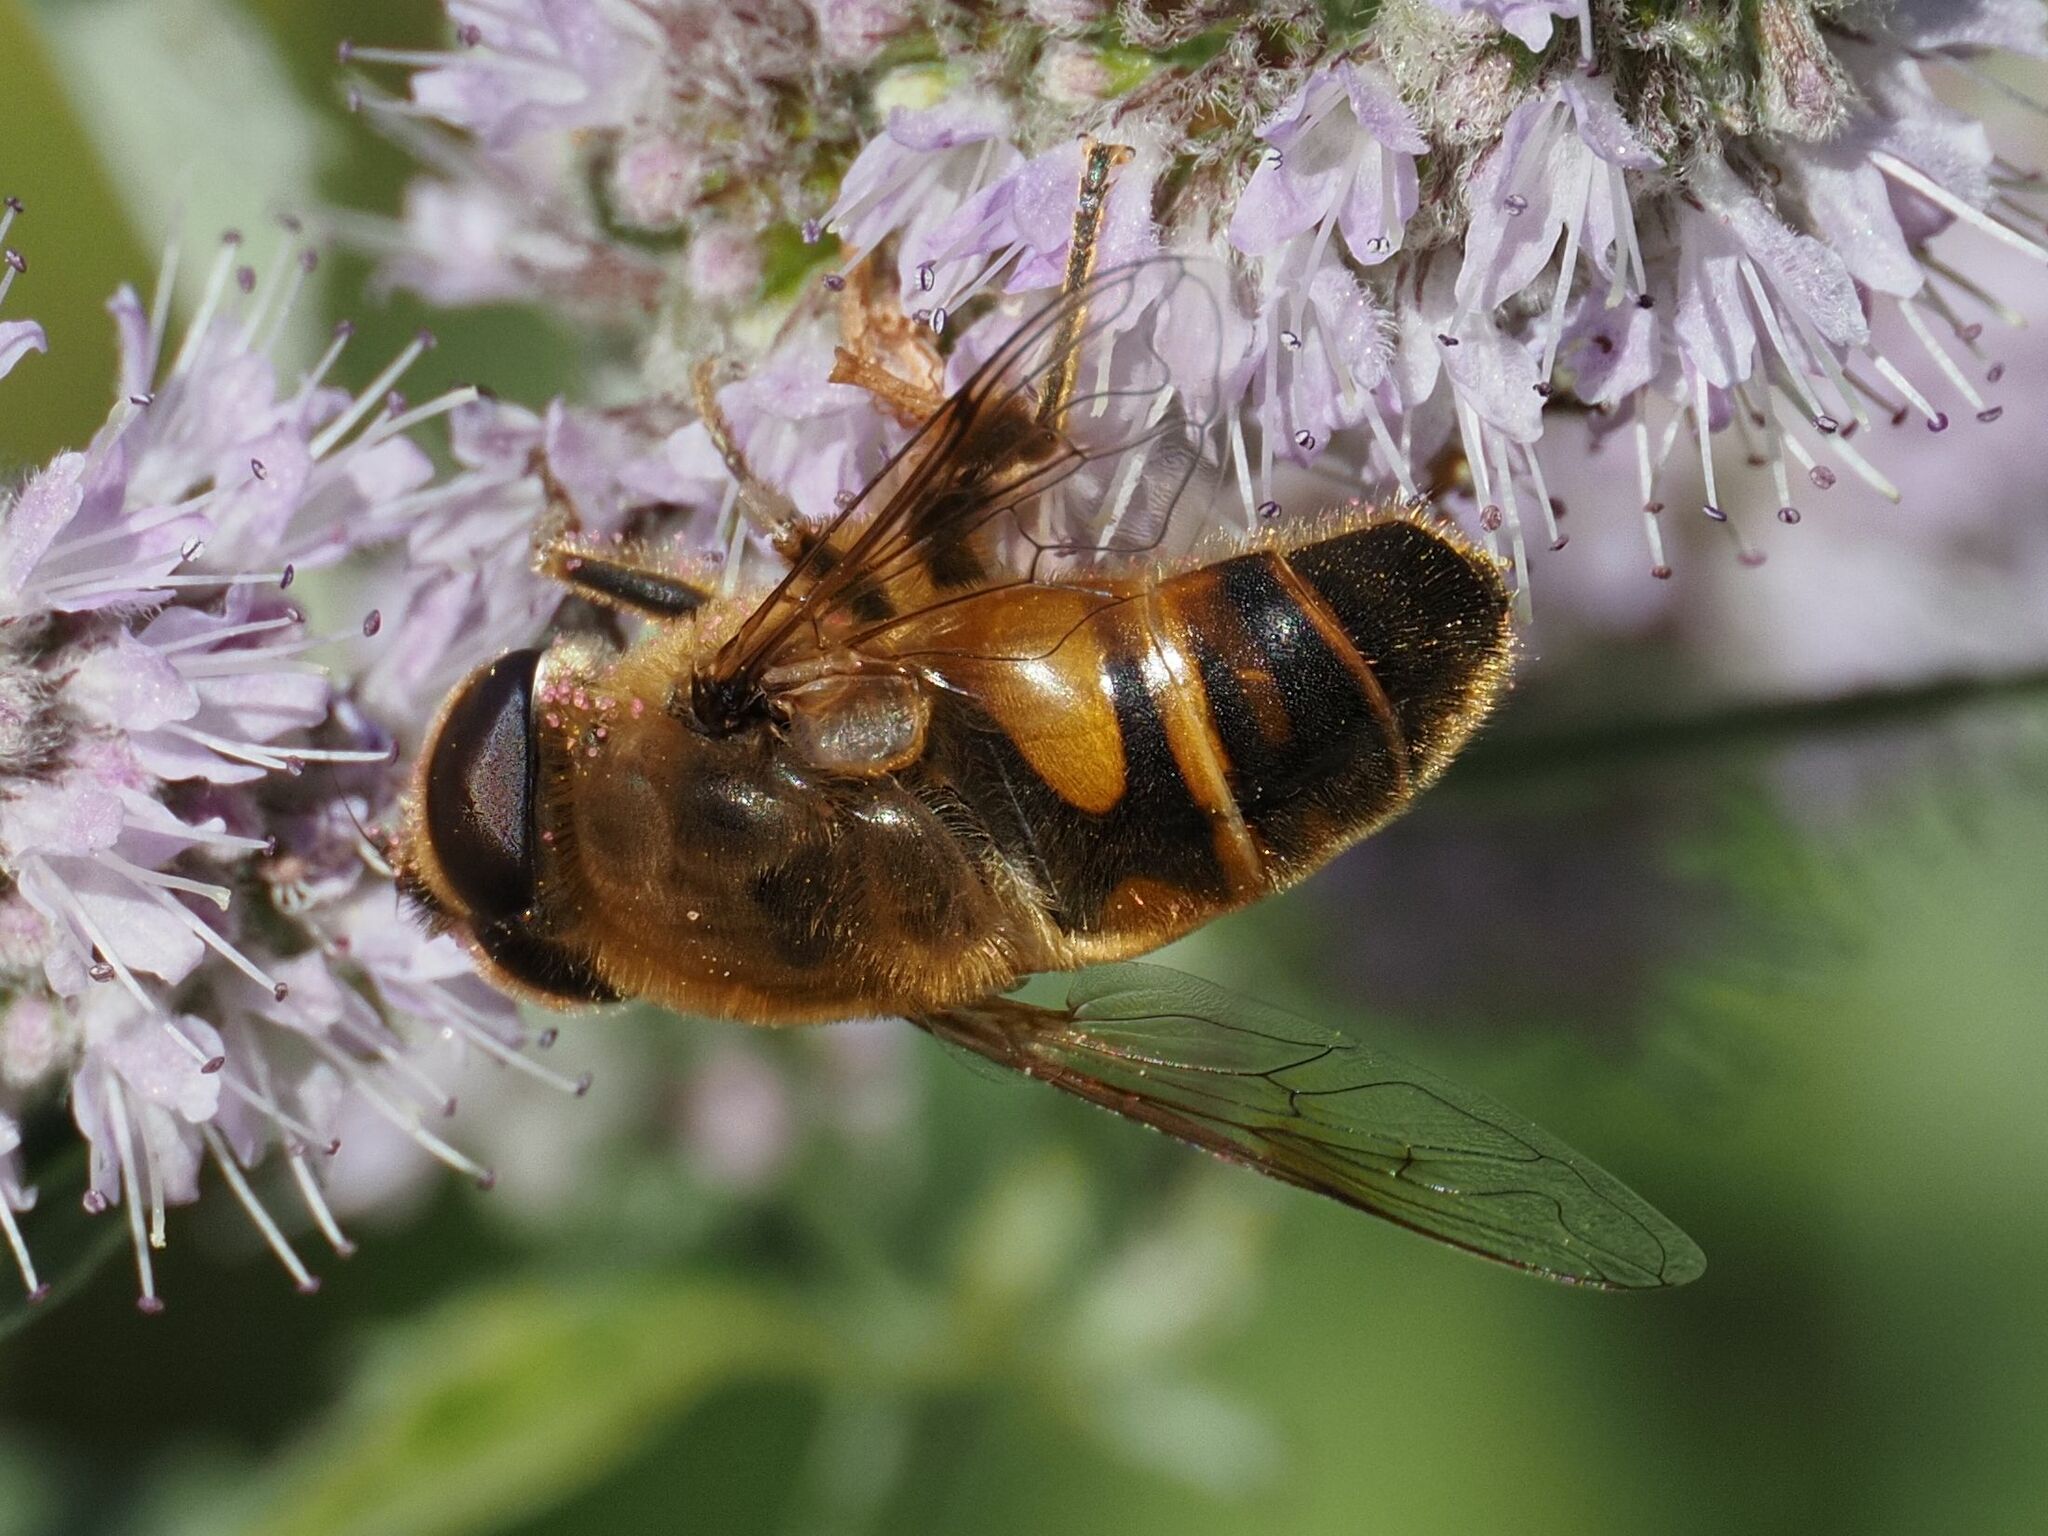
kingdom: Animalia
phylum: Arthropoda
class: Insecta
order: Diptera
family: Syrphidae
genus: Eristalis
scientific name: Eristalis tenax
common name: Drone fly
